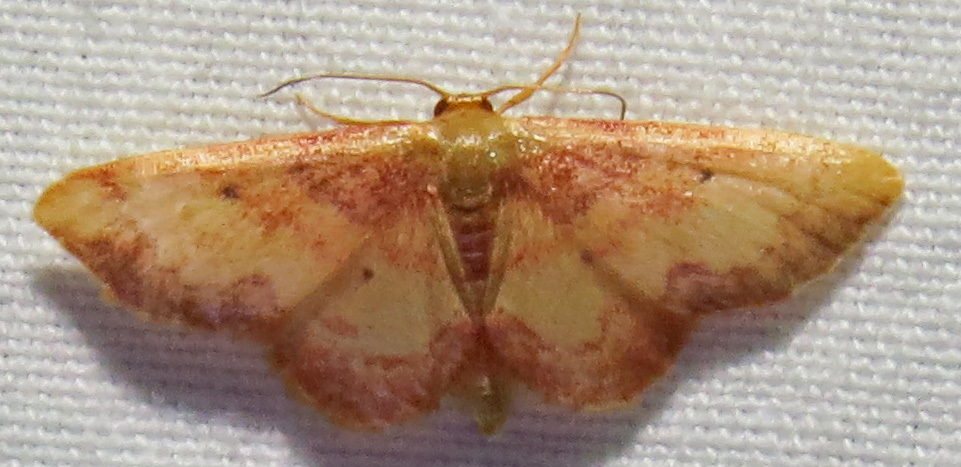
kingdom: Animalia
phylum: Arthropoda
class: Insecta
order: Lepidoptera
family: Geometridae
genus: Idaea
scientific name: Idaea demissaria
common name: Red-bordered wave
